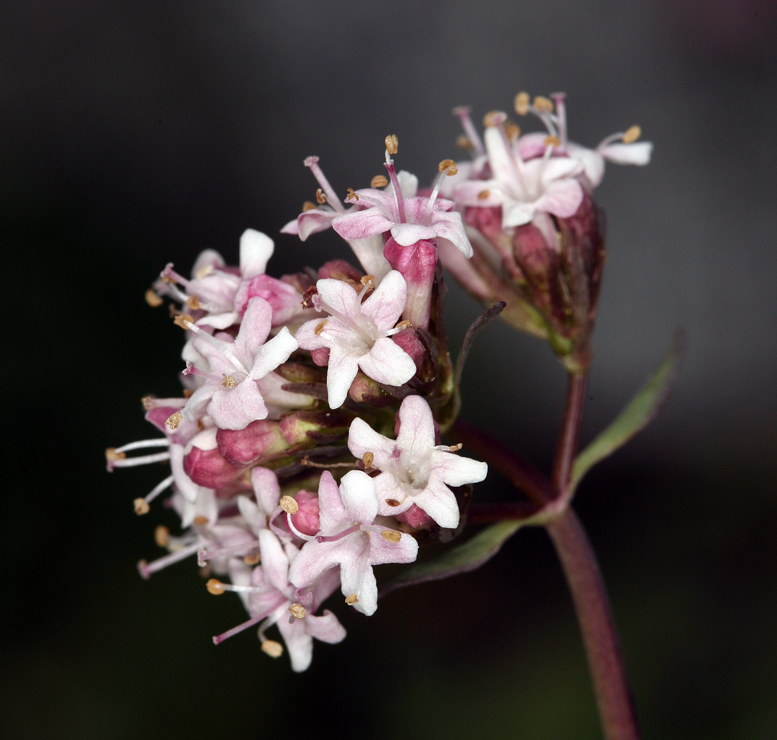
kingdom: Plantae
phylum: Tracheophyta
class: Magnoliopsida
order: Dipsacales
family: Caprifoliaceae
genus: Valeriana
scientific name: Valeriana acutiloba
